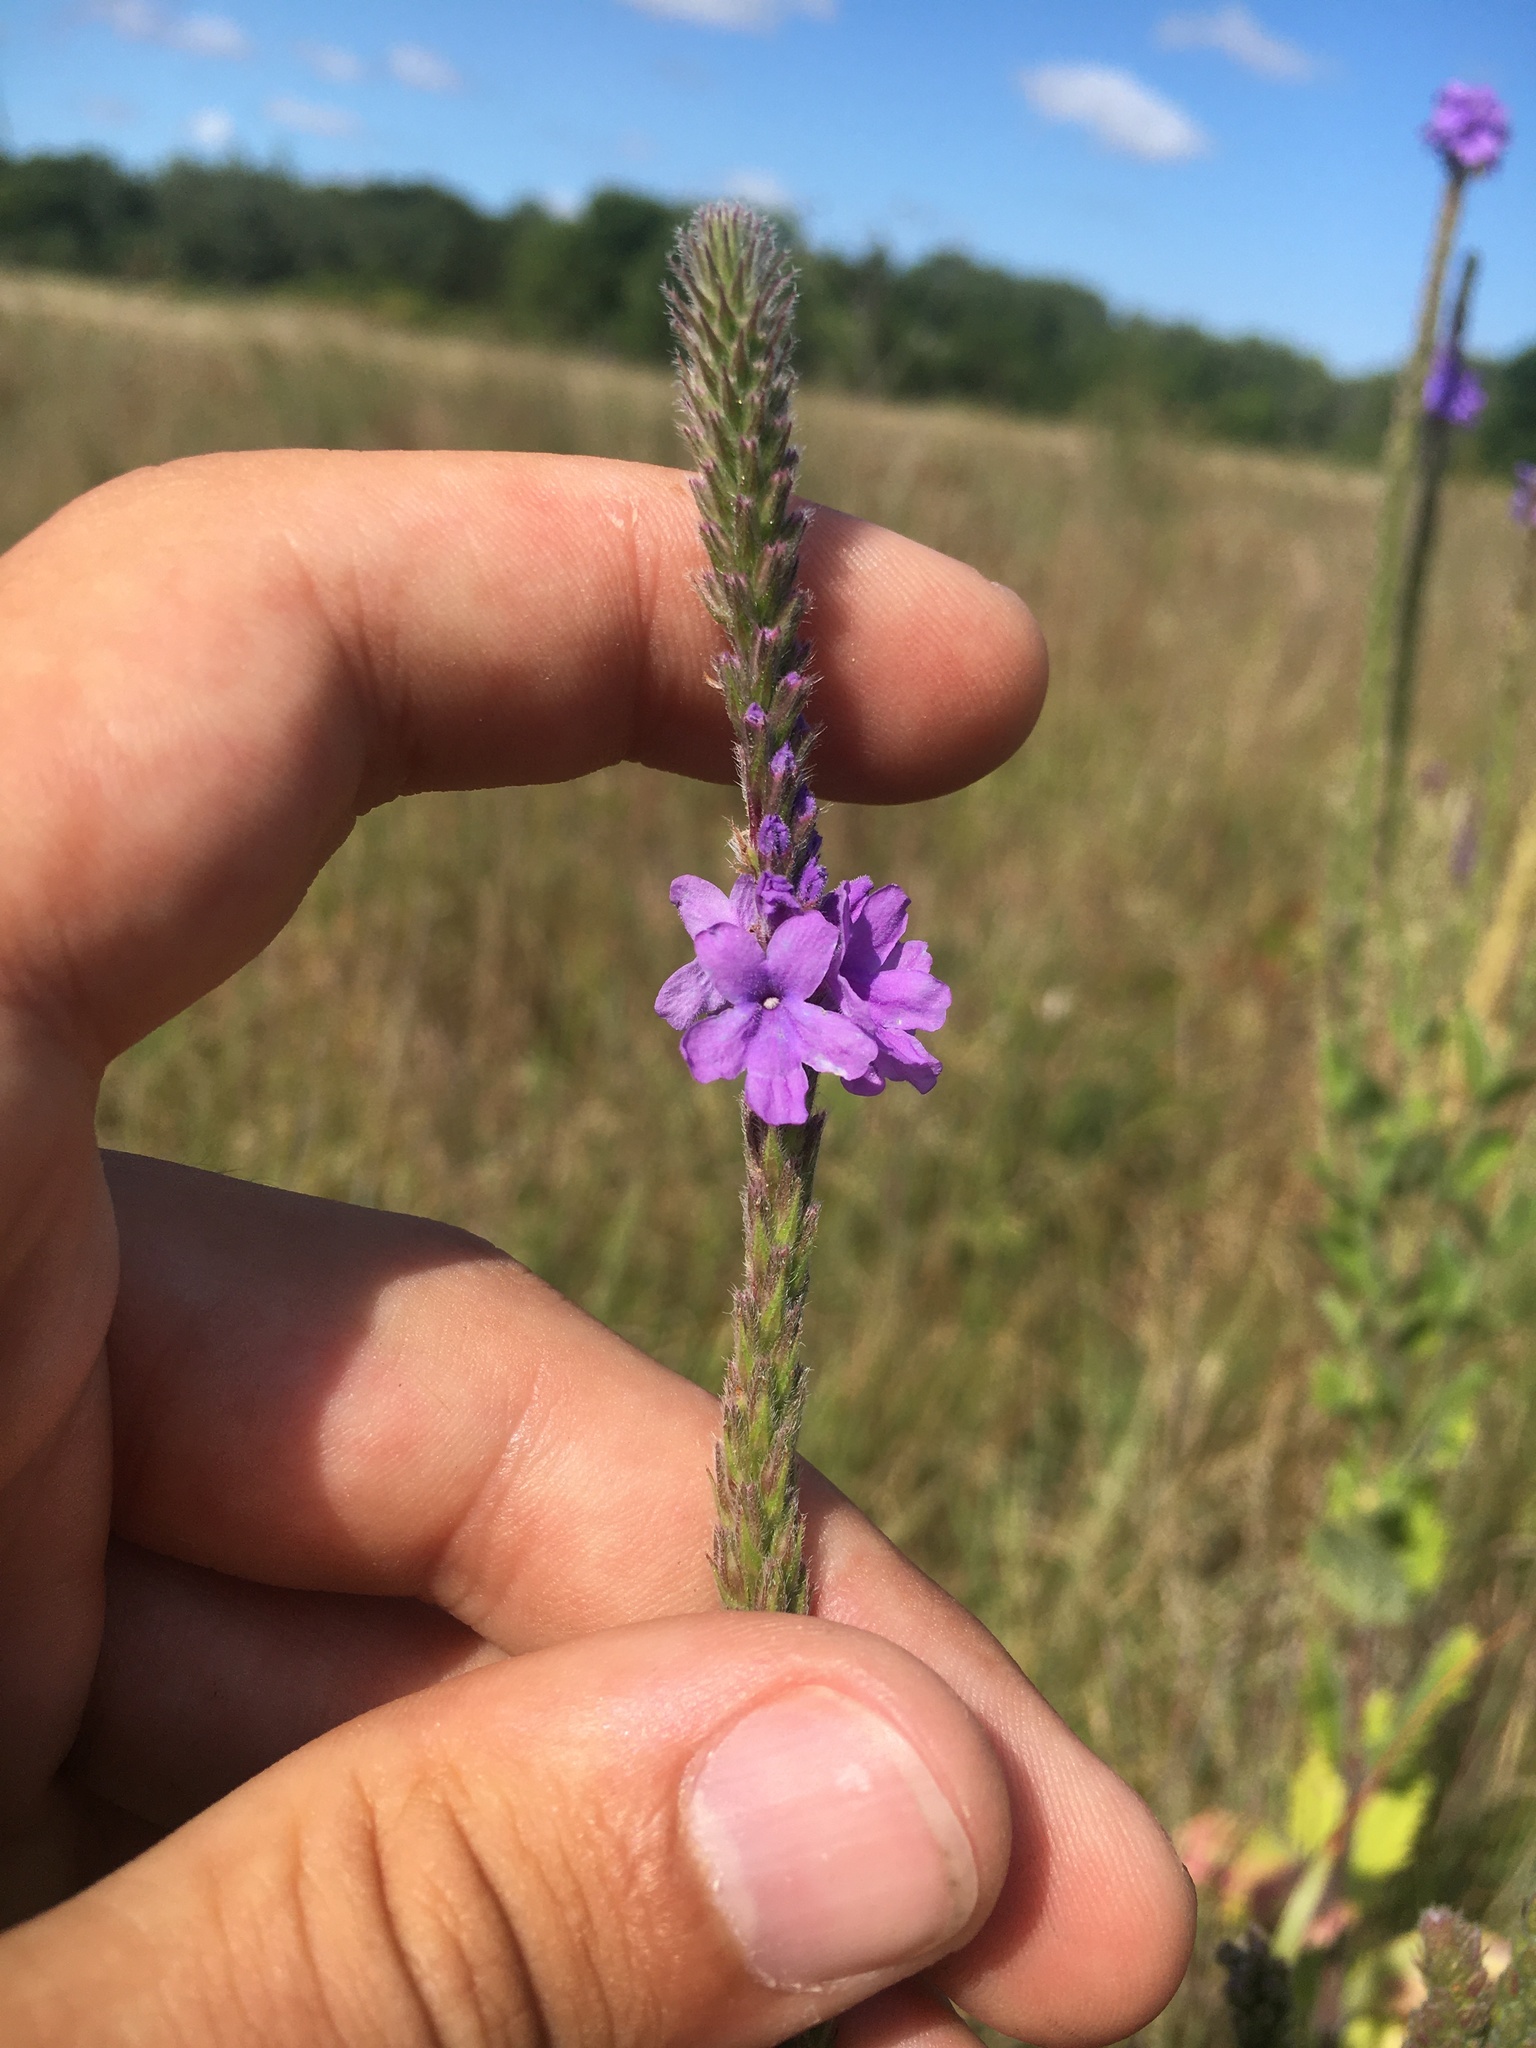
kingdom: Plantae
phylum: Tracheophyta
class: Magnoliopsida
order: Lamiales
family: Verbenaceae
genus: Verbena
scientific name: Verbena stricta
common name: Hoary vervain
